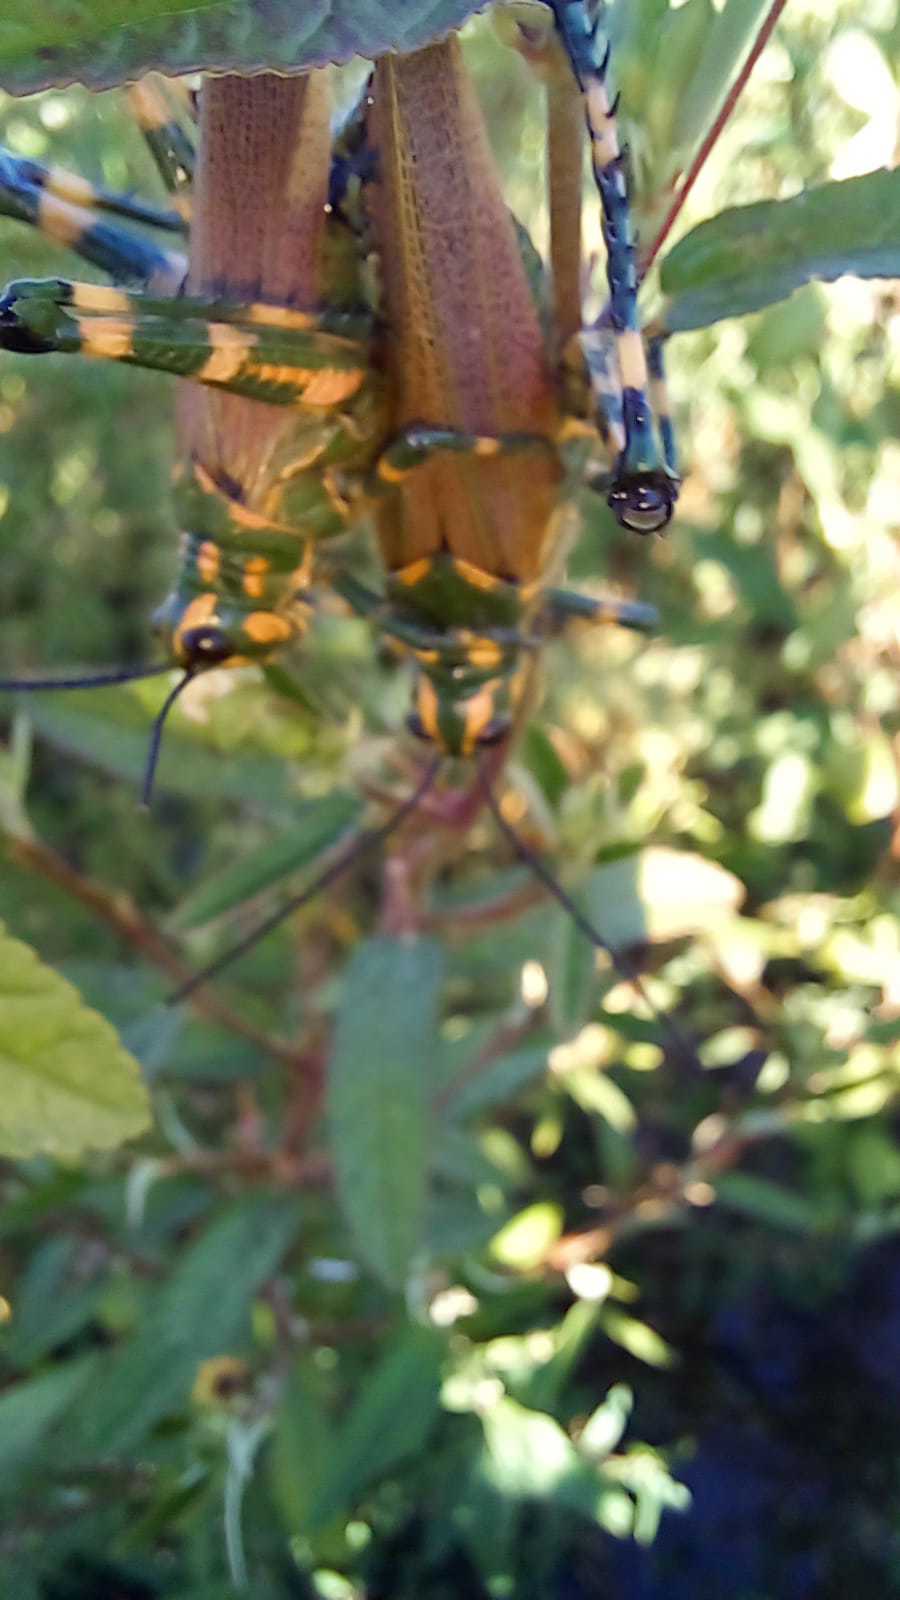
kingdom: Animalia
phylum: Arthropoda
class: Insecta
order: Orthoptera
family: Romaleidae
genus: Chromacris
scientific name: Chromacris speciosa
